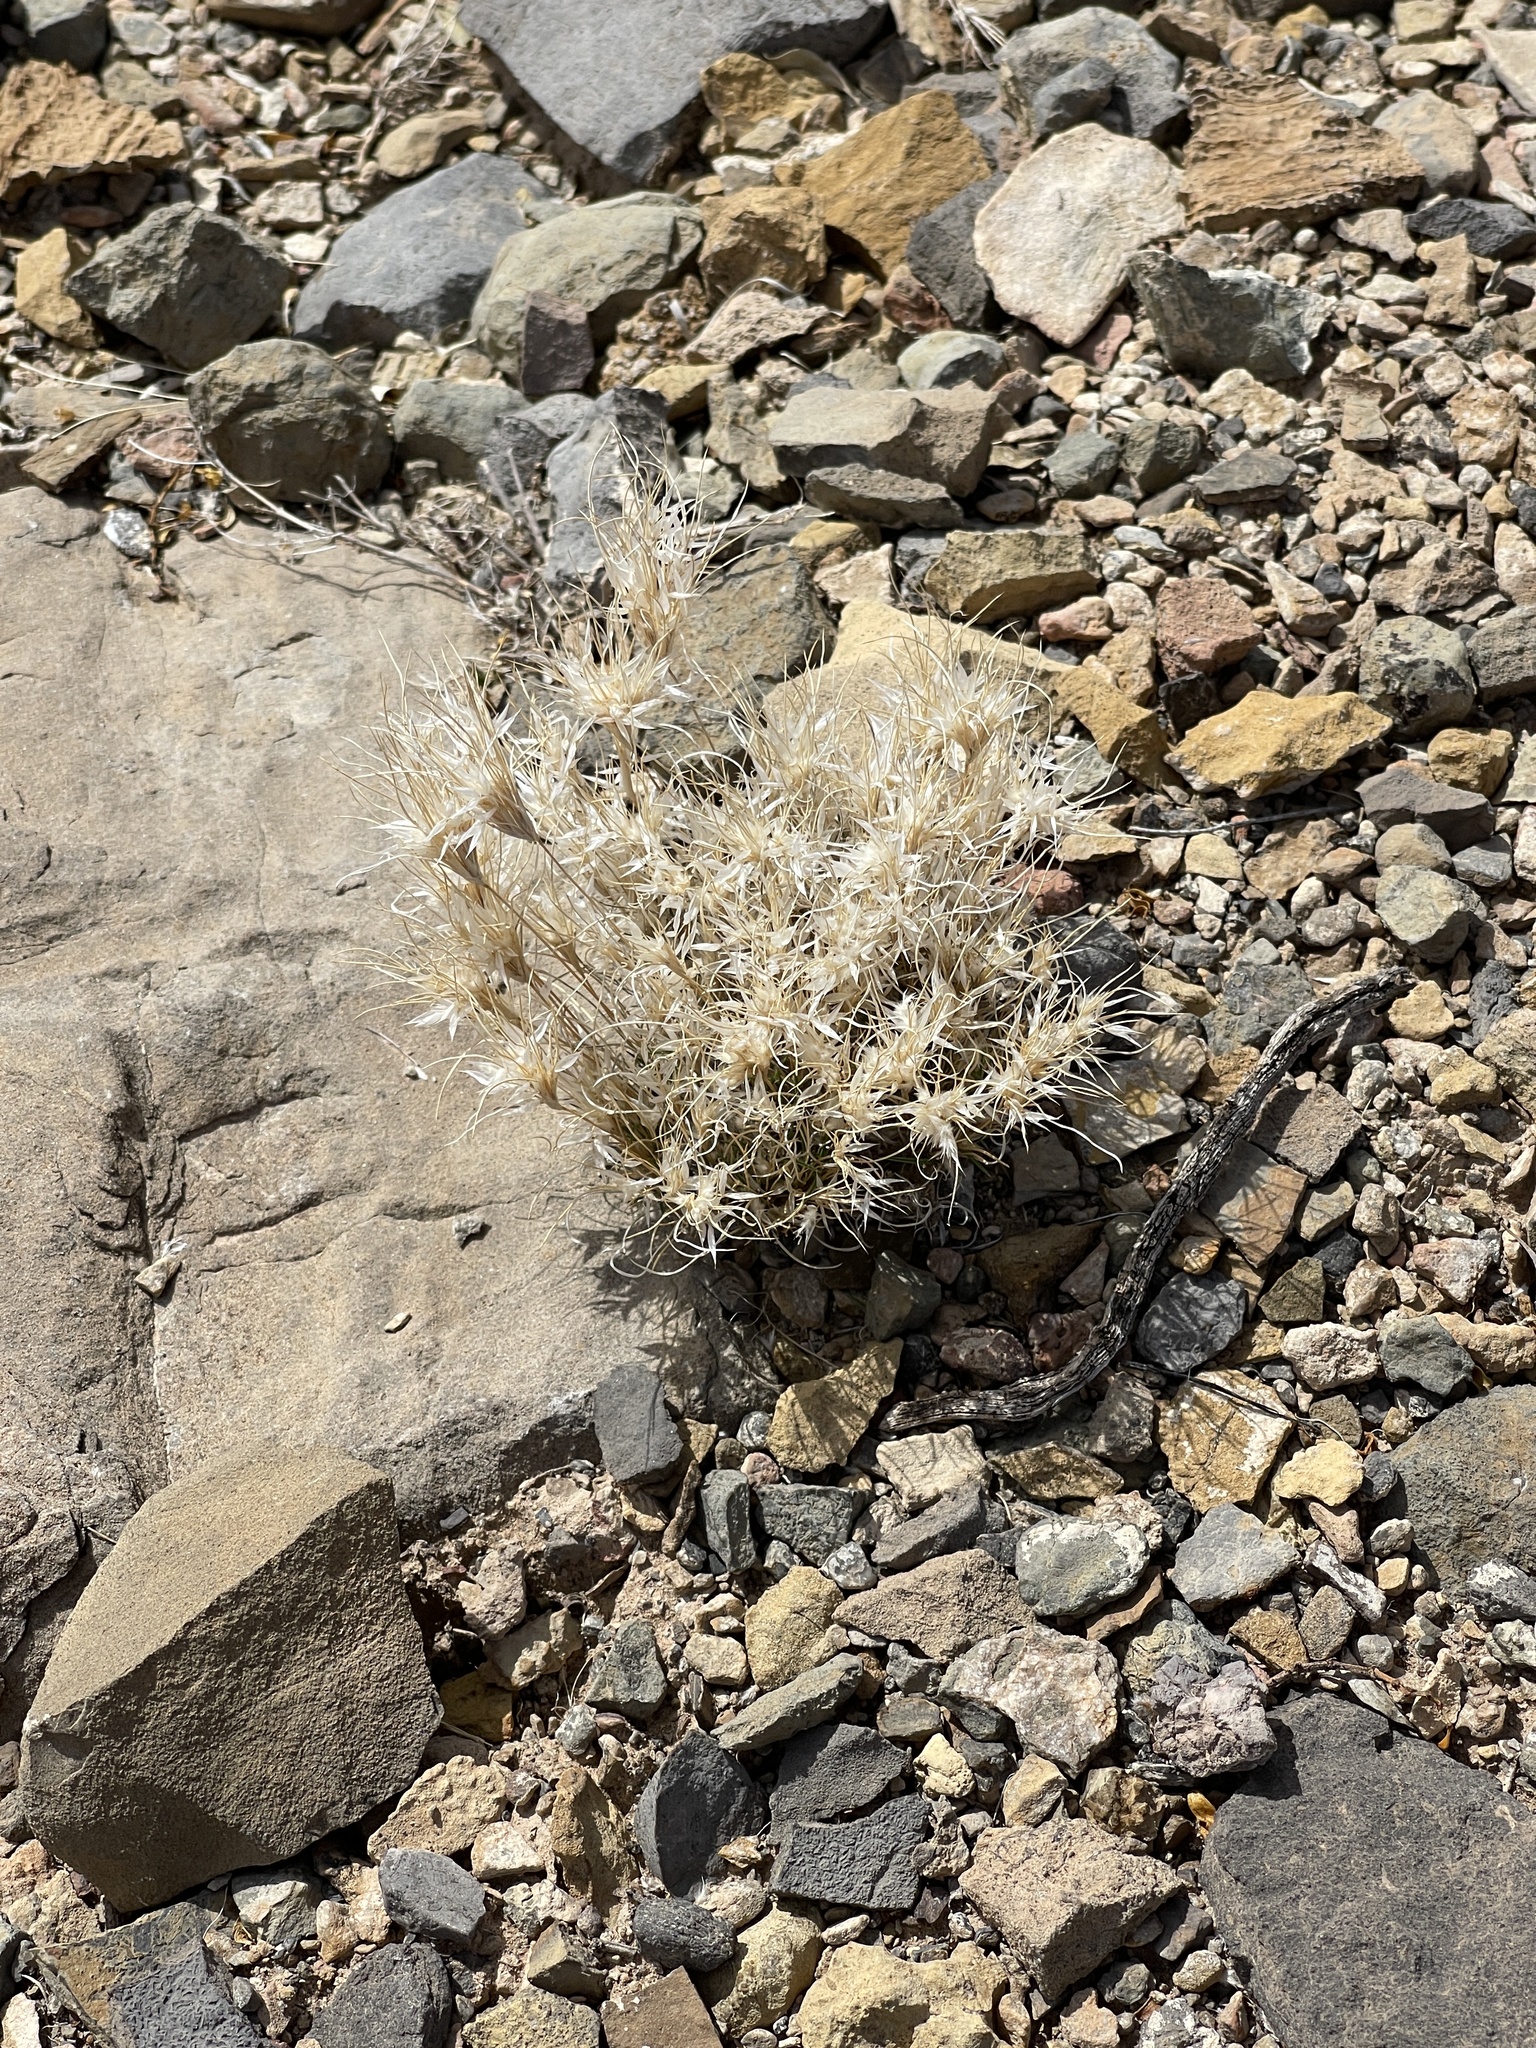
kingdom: Plantae
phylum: Tracheophyta
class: Liliopsida
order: Poales
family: Poaceae
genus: Dasyochloa
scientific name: Dasyochloa pulchella
